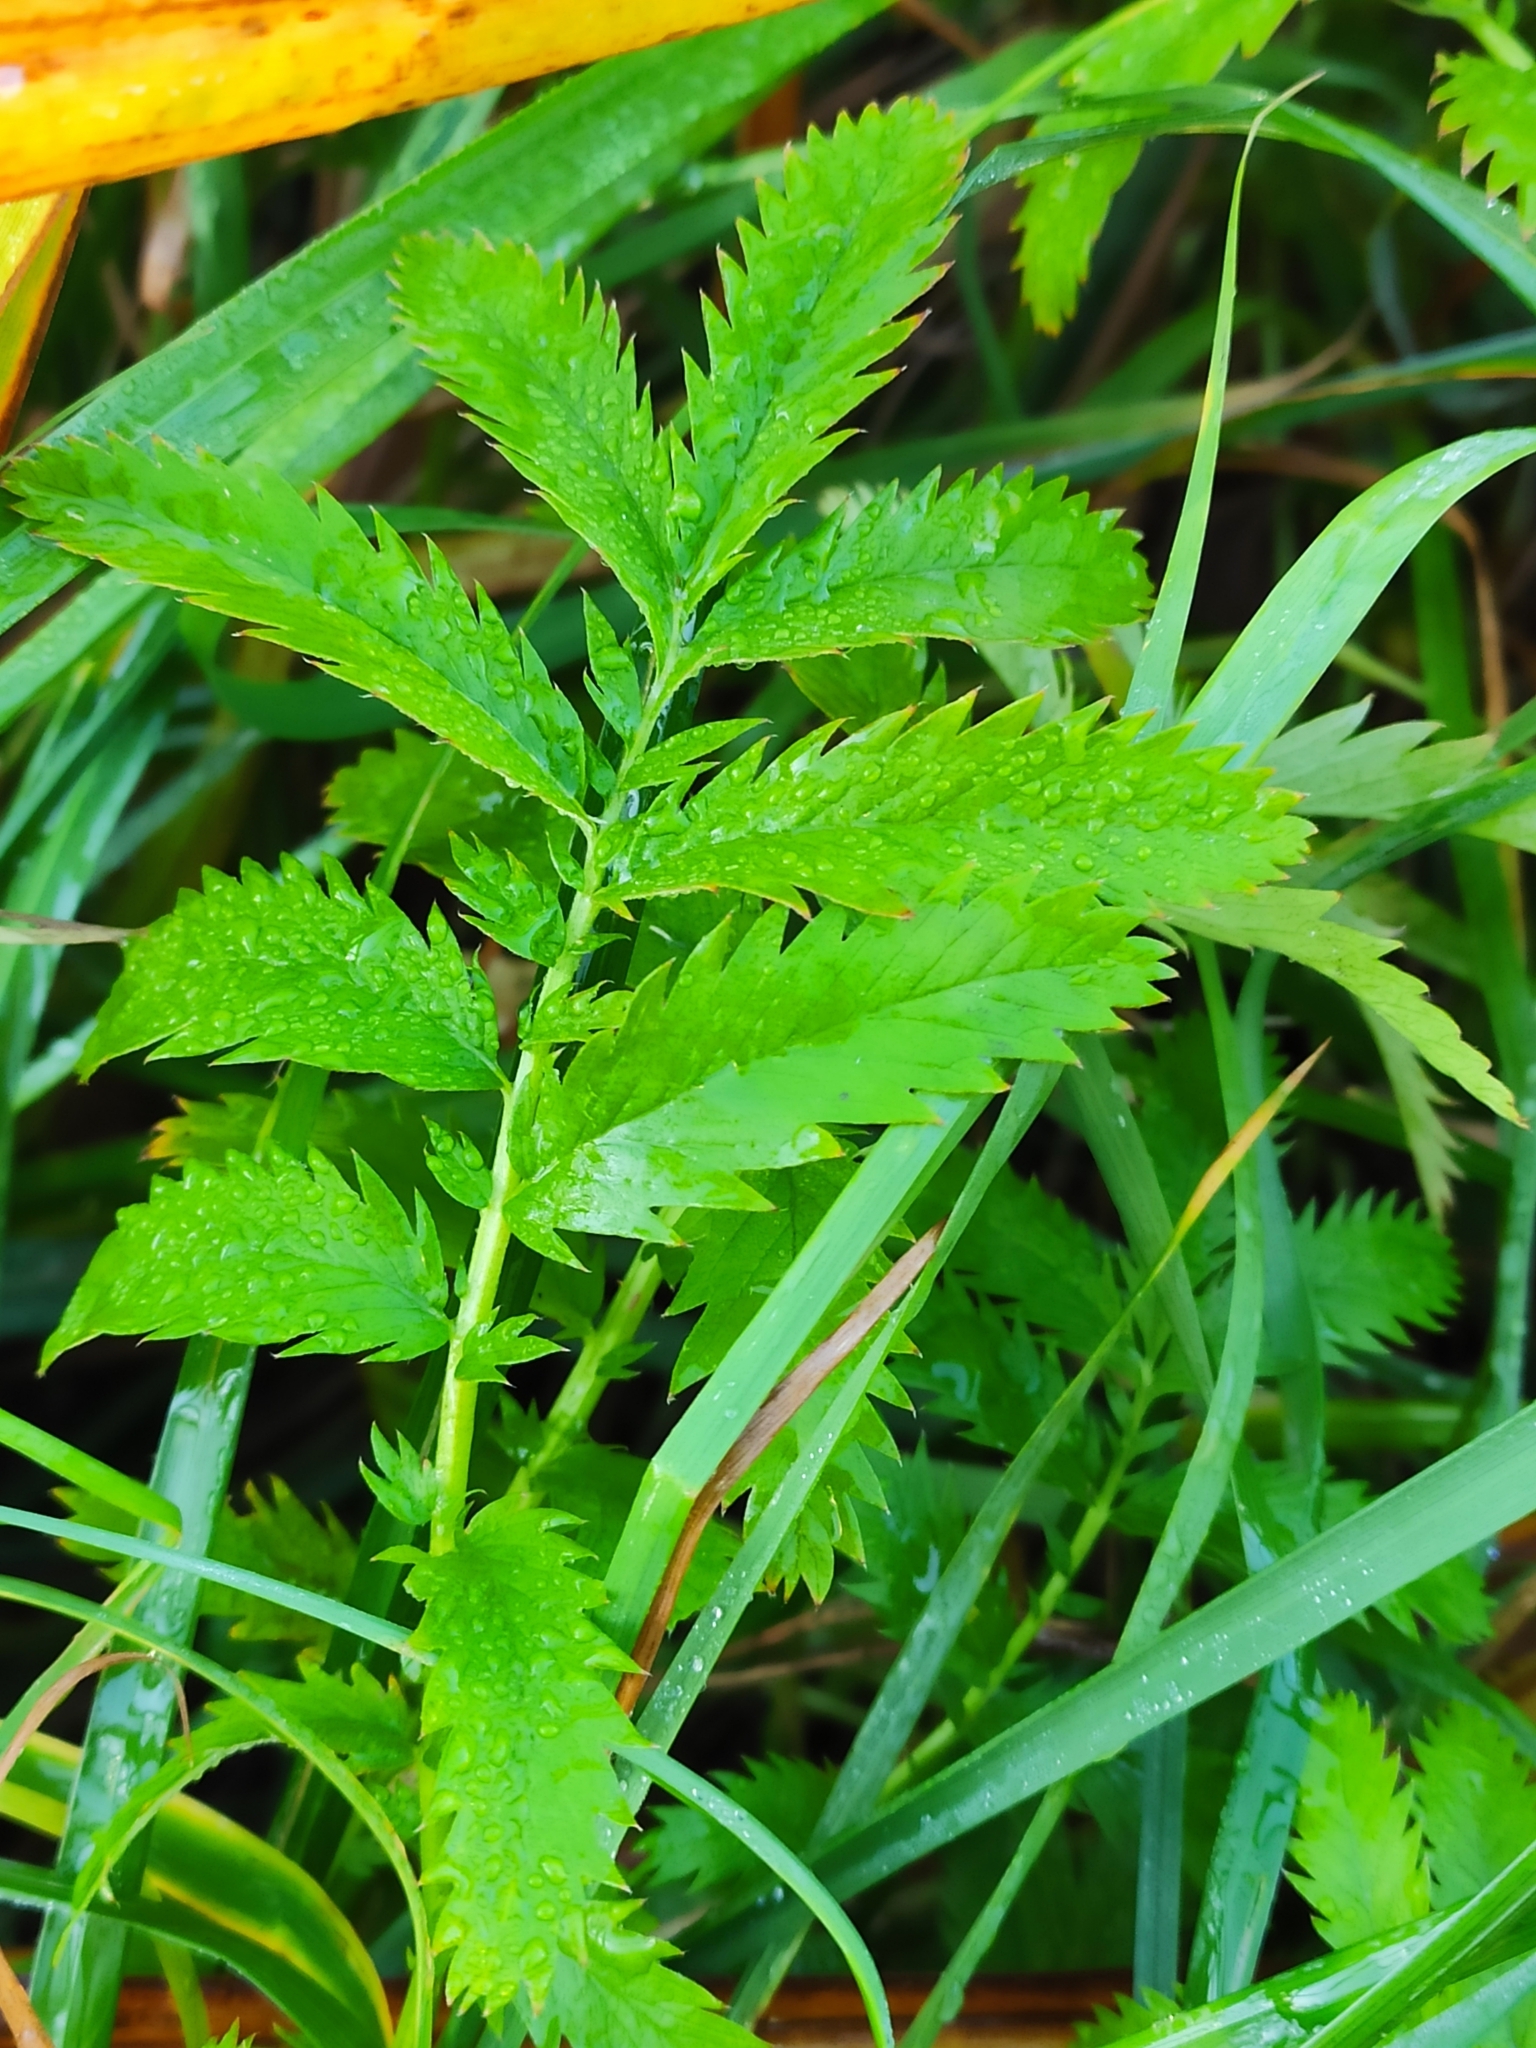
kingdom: Plantae
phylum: Tracheophyta
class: Magnoliopsida
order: Rosales
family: Rosaceae
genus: Argentina
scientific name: Argentina anserina
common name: Common silverweed
